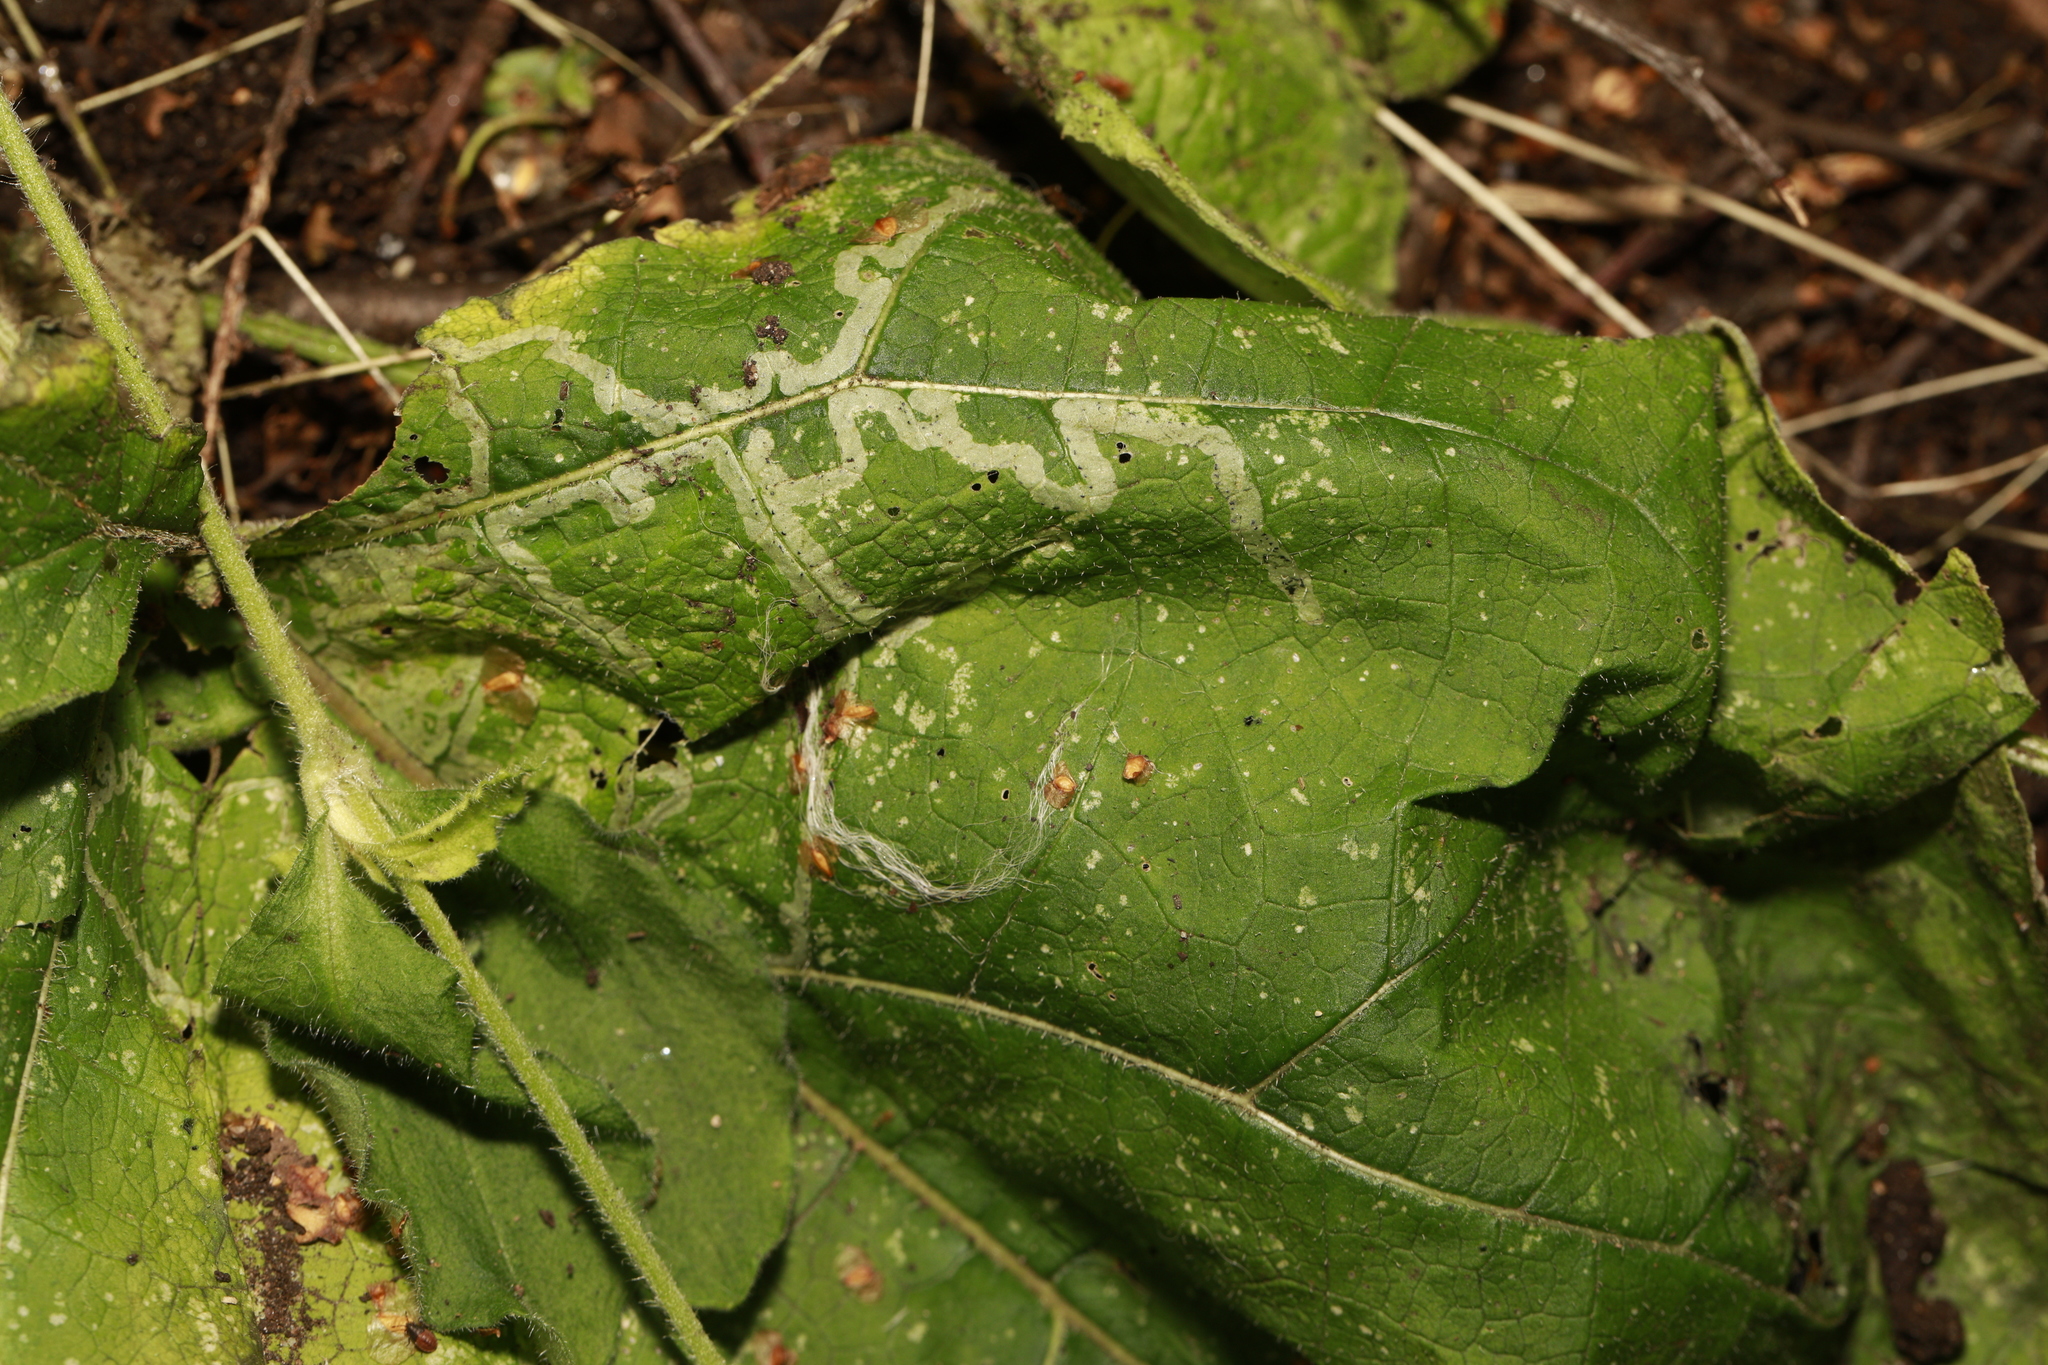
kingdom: Animalia
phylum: Arthropoda
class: Insecta
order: Diptera
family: Agromyzidae
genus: Phytomyza
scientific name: Phytomyza lappae
